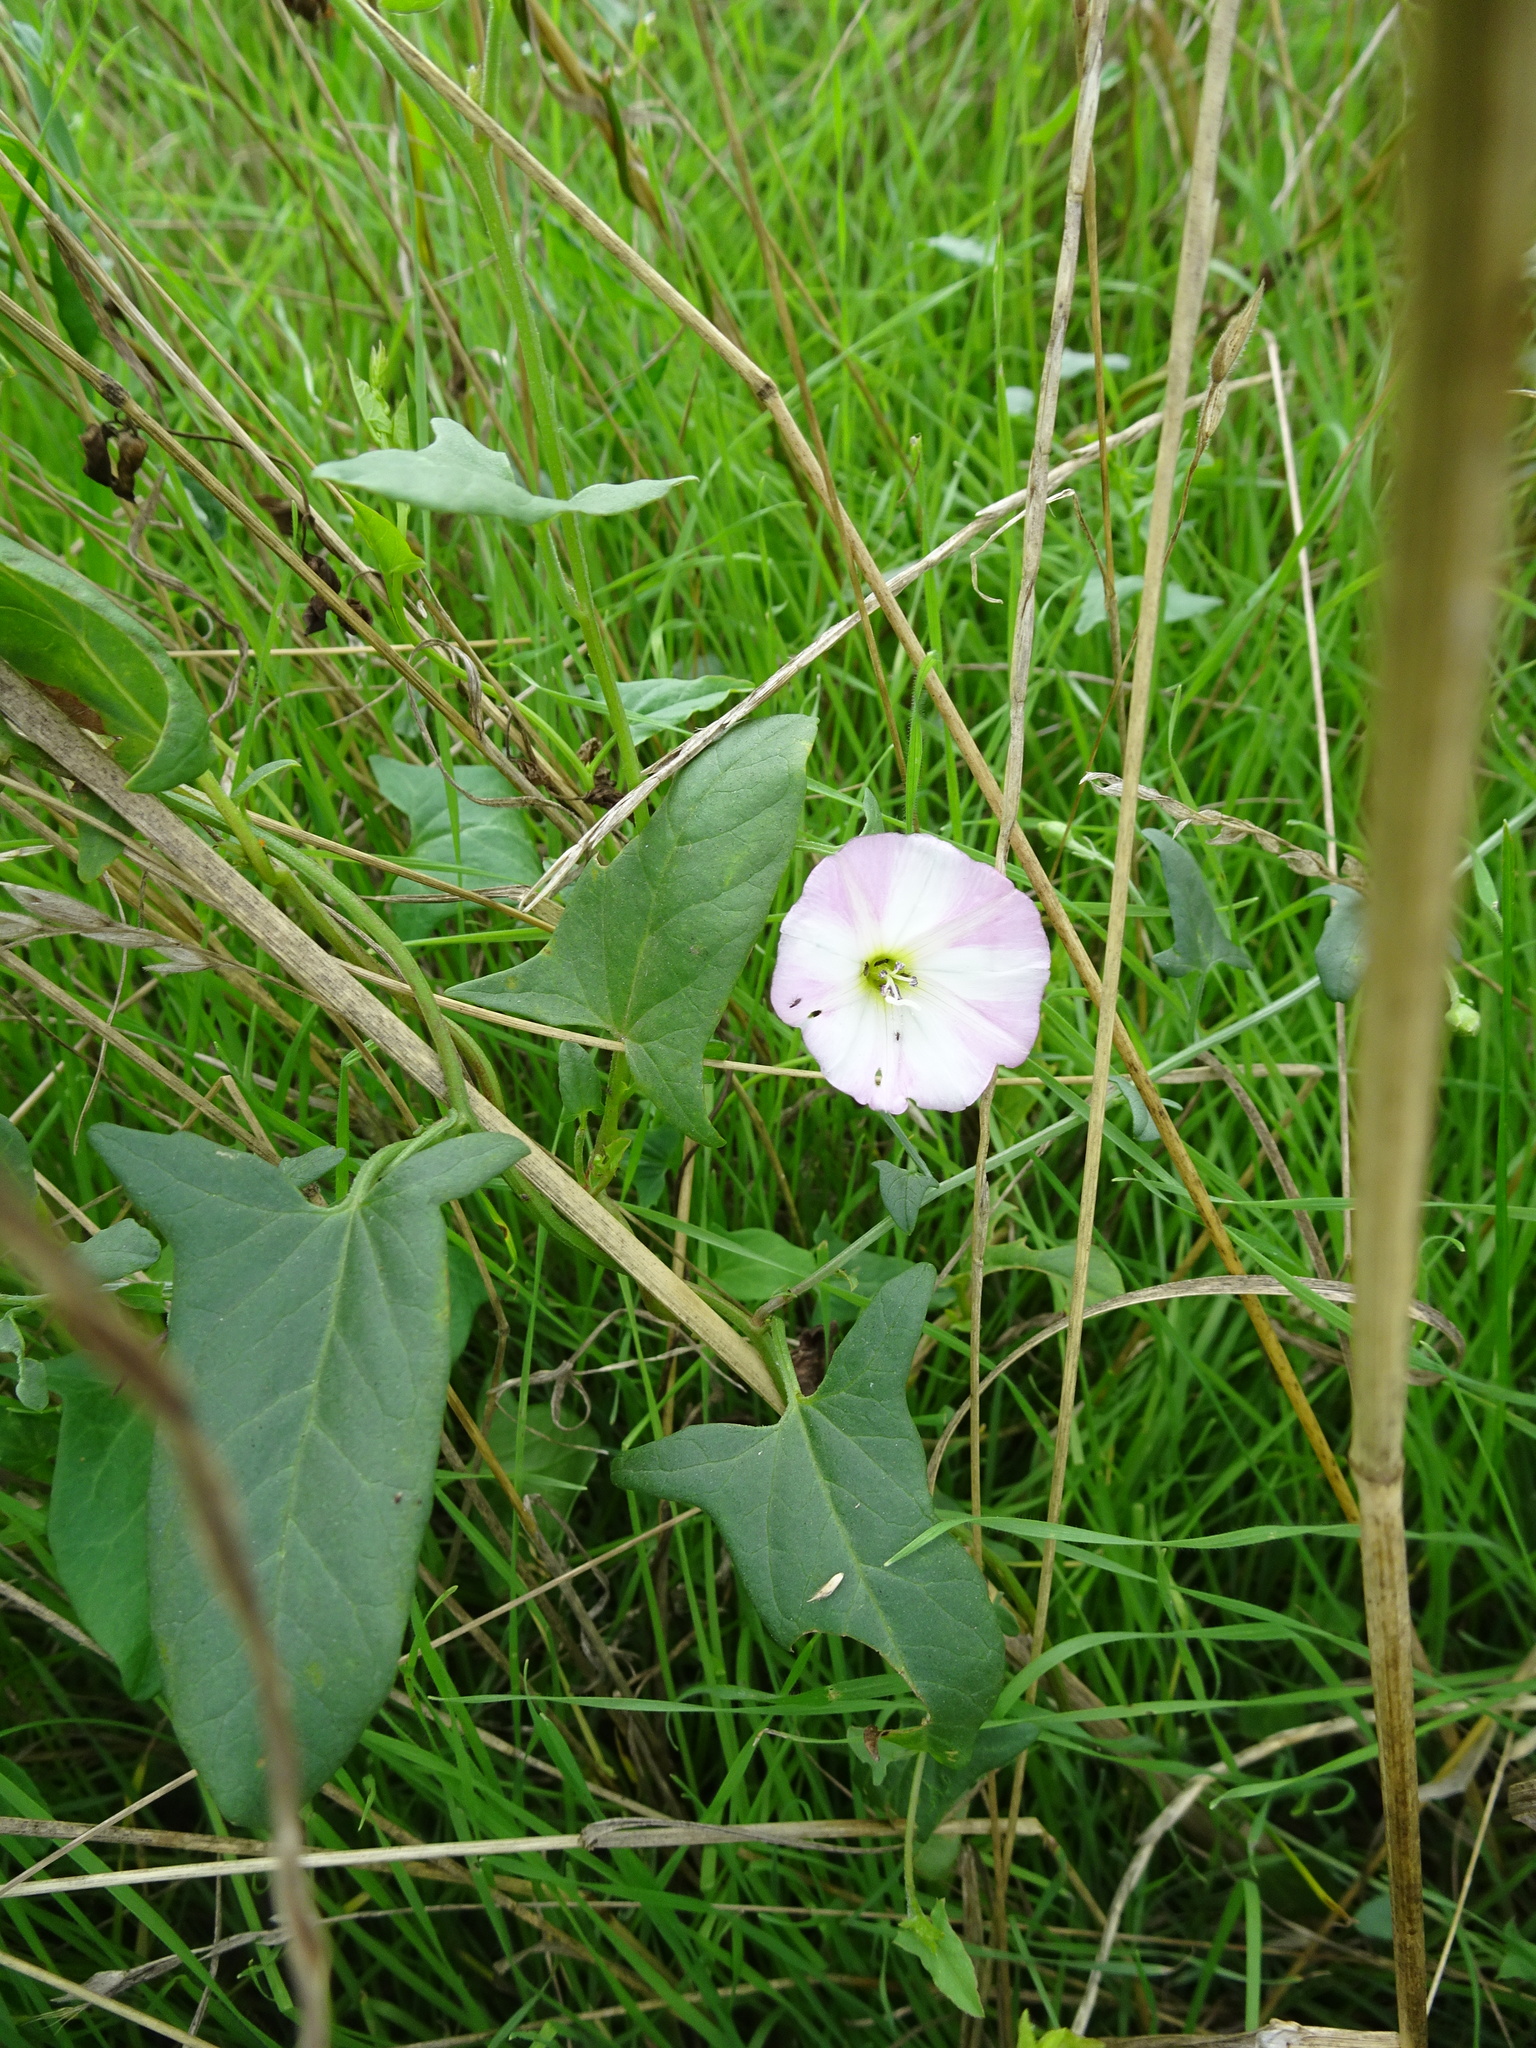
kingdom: Plantae
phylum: Tracheophyta
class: Magnoliopsida
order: Solanales
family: Convolvulaceae
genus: Convolvulus
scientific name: Convolvulus arvensis
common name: Field bindweed
